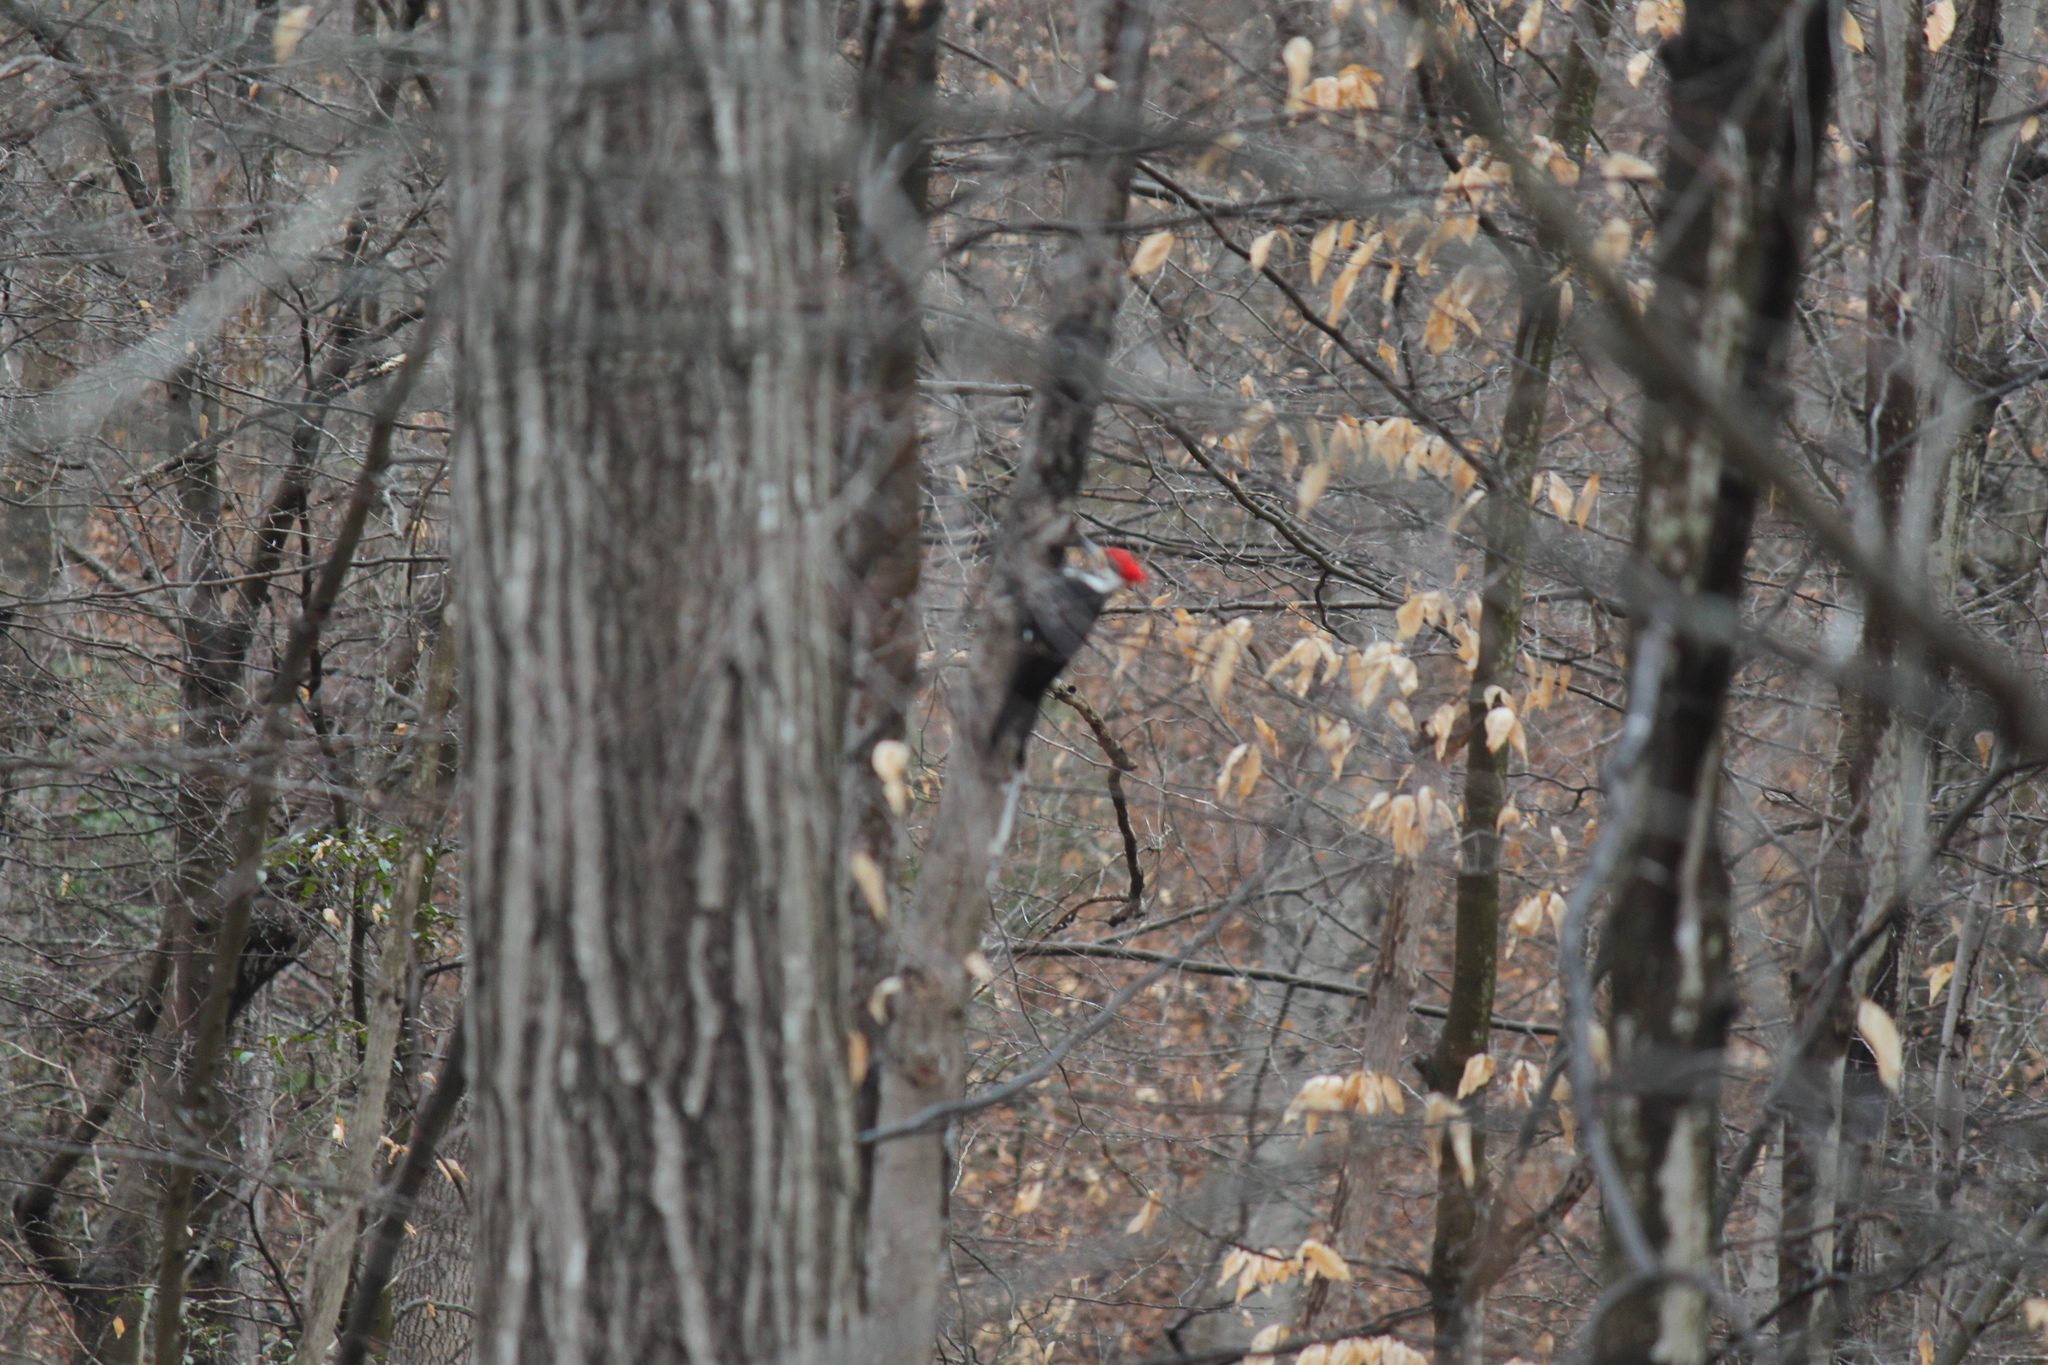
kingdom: Animalia
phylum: Chordata
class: Aves
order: Piciformes
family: Picidae
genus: Dryocopus
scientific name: Dryocopus pileatus
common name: Pileated woodpecker
